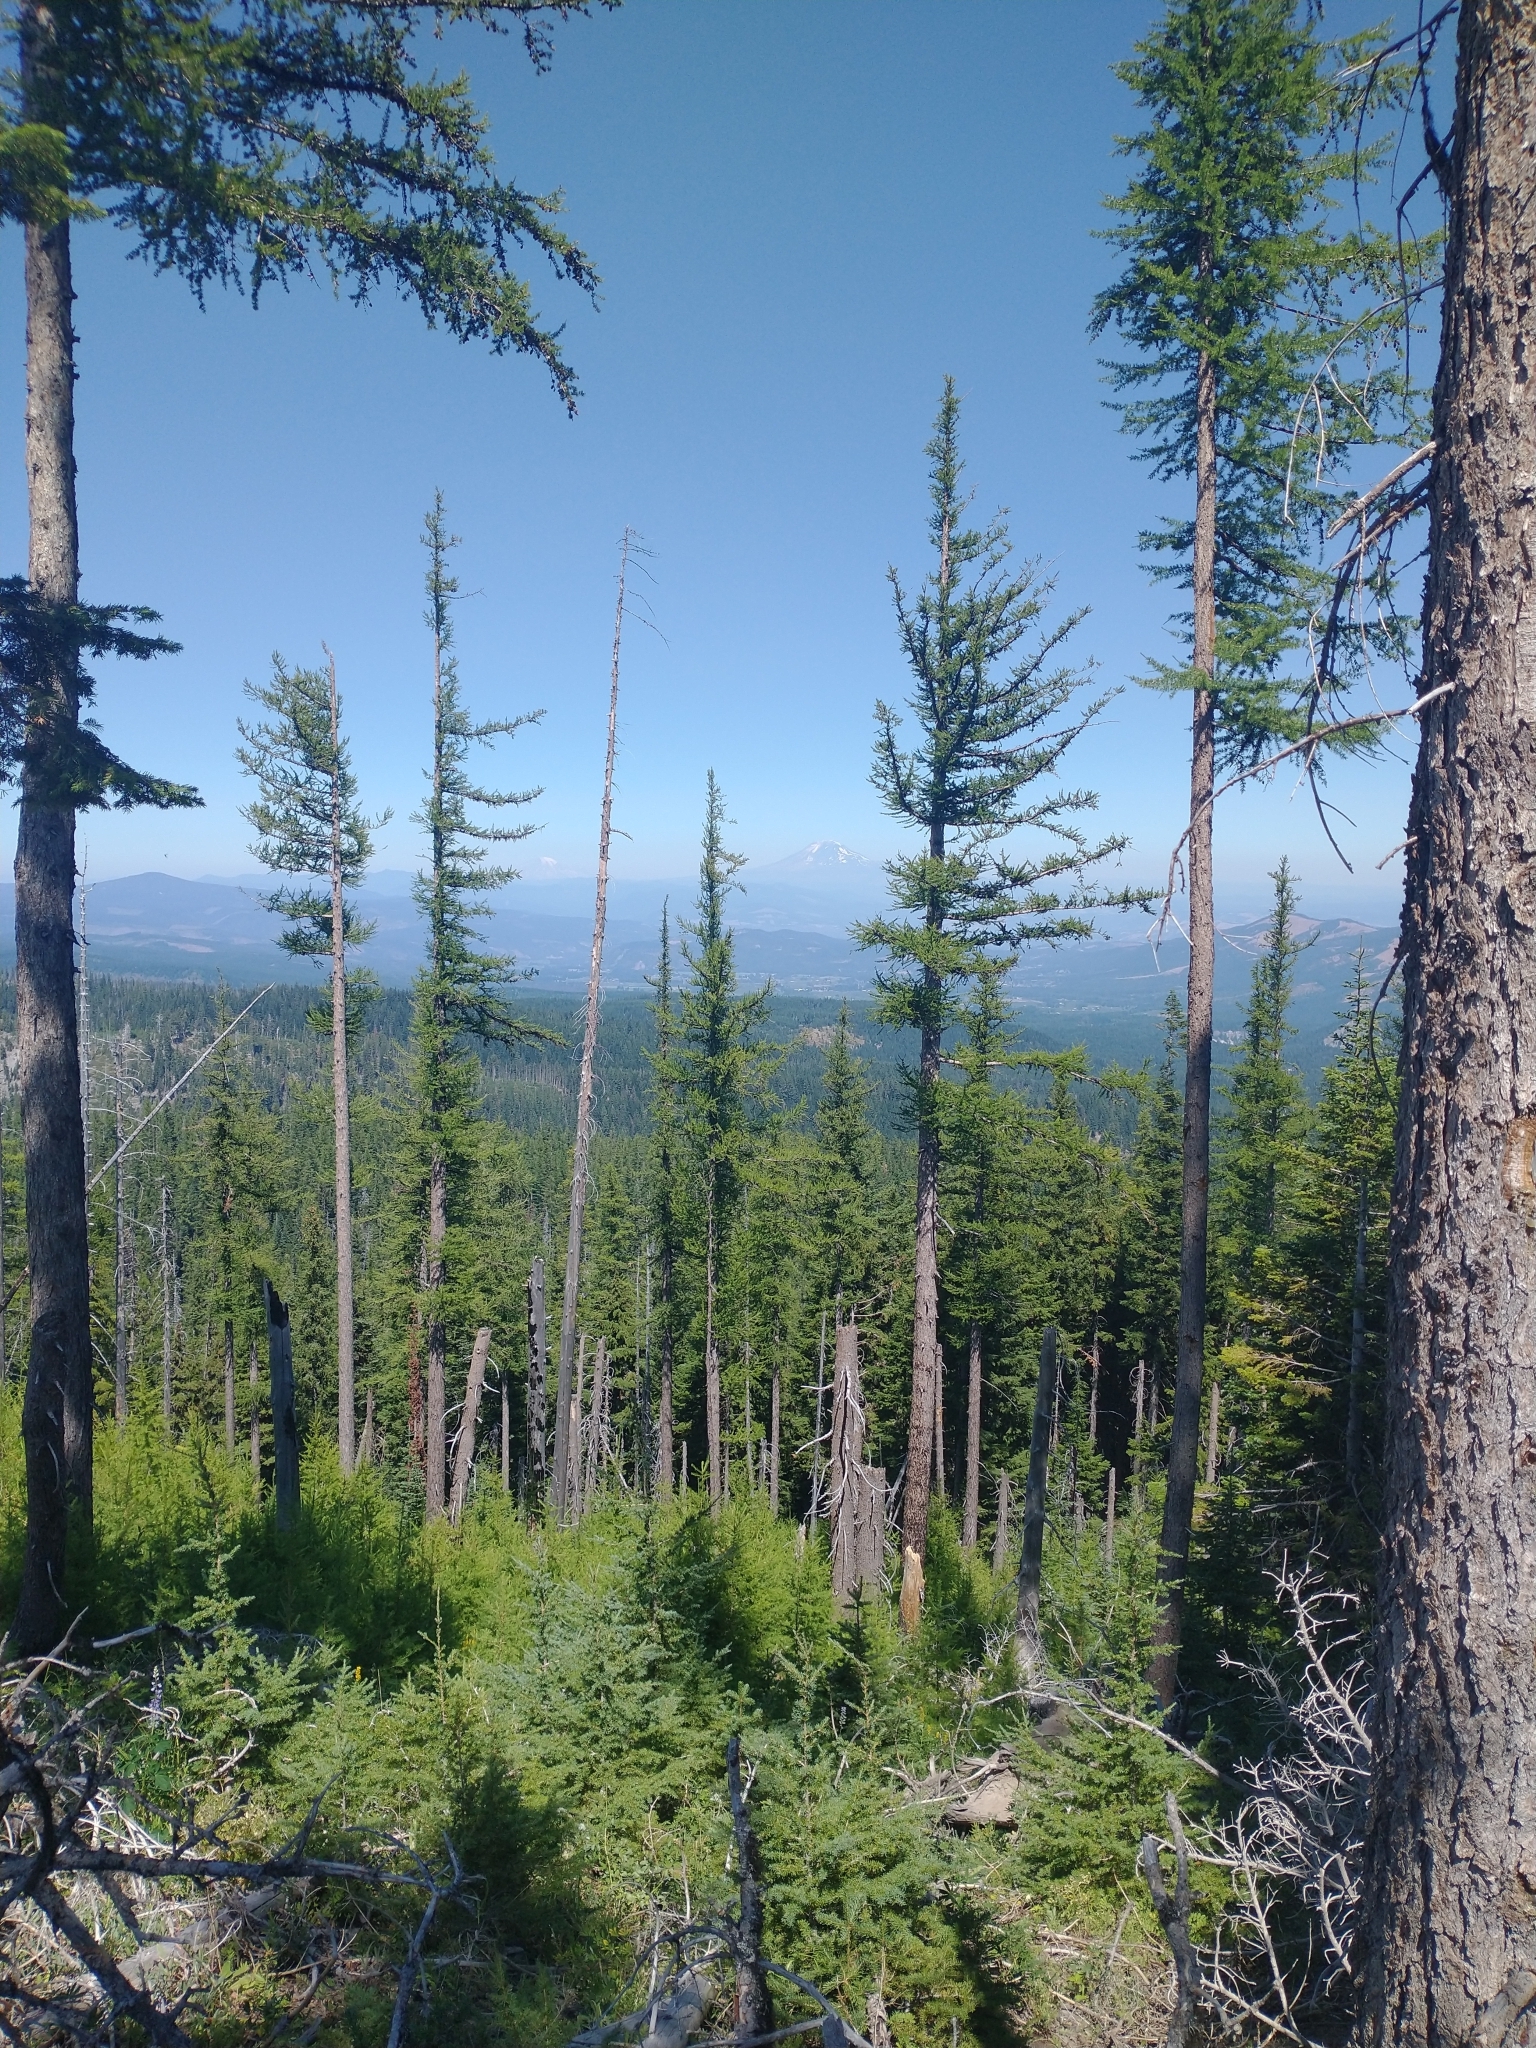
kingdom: Plantae
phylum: Tracheophyta
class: Pinopsida
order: Pinales
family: Pinaceae
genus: Larix
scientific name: Larix occidentalis
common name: Western larch
